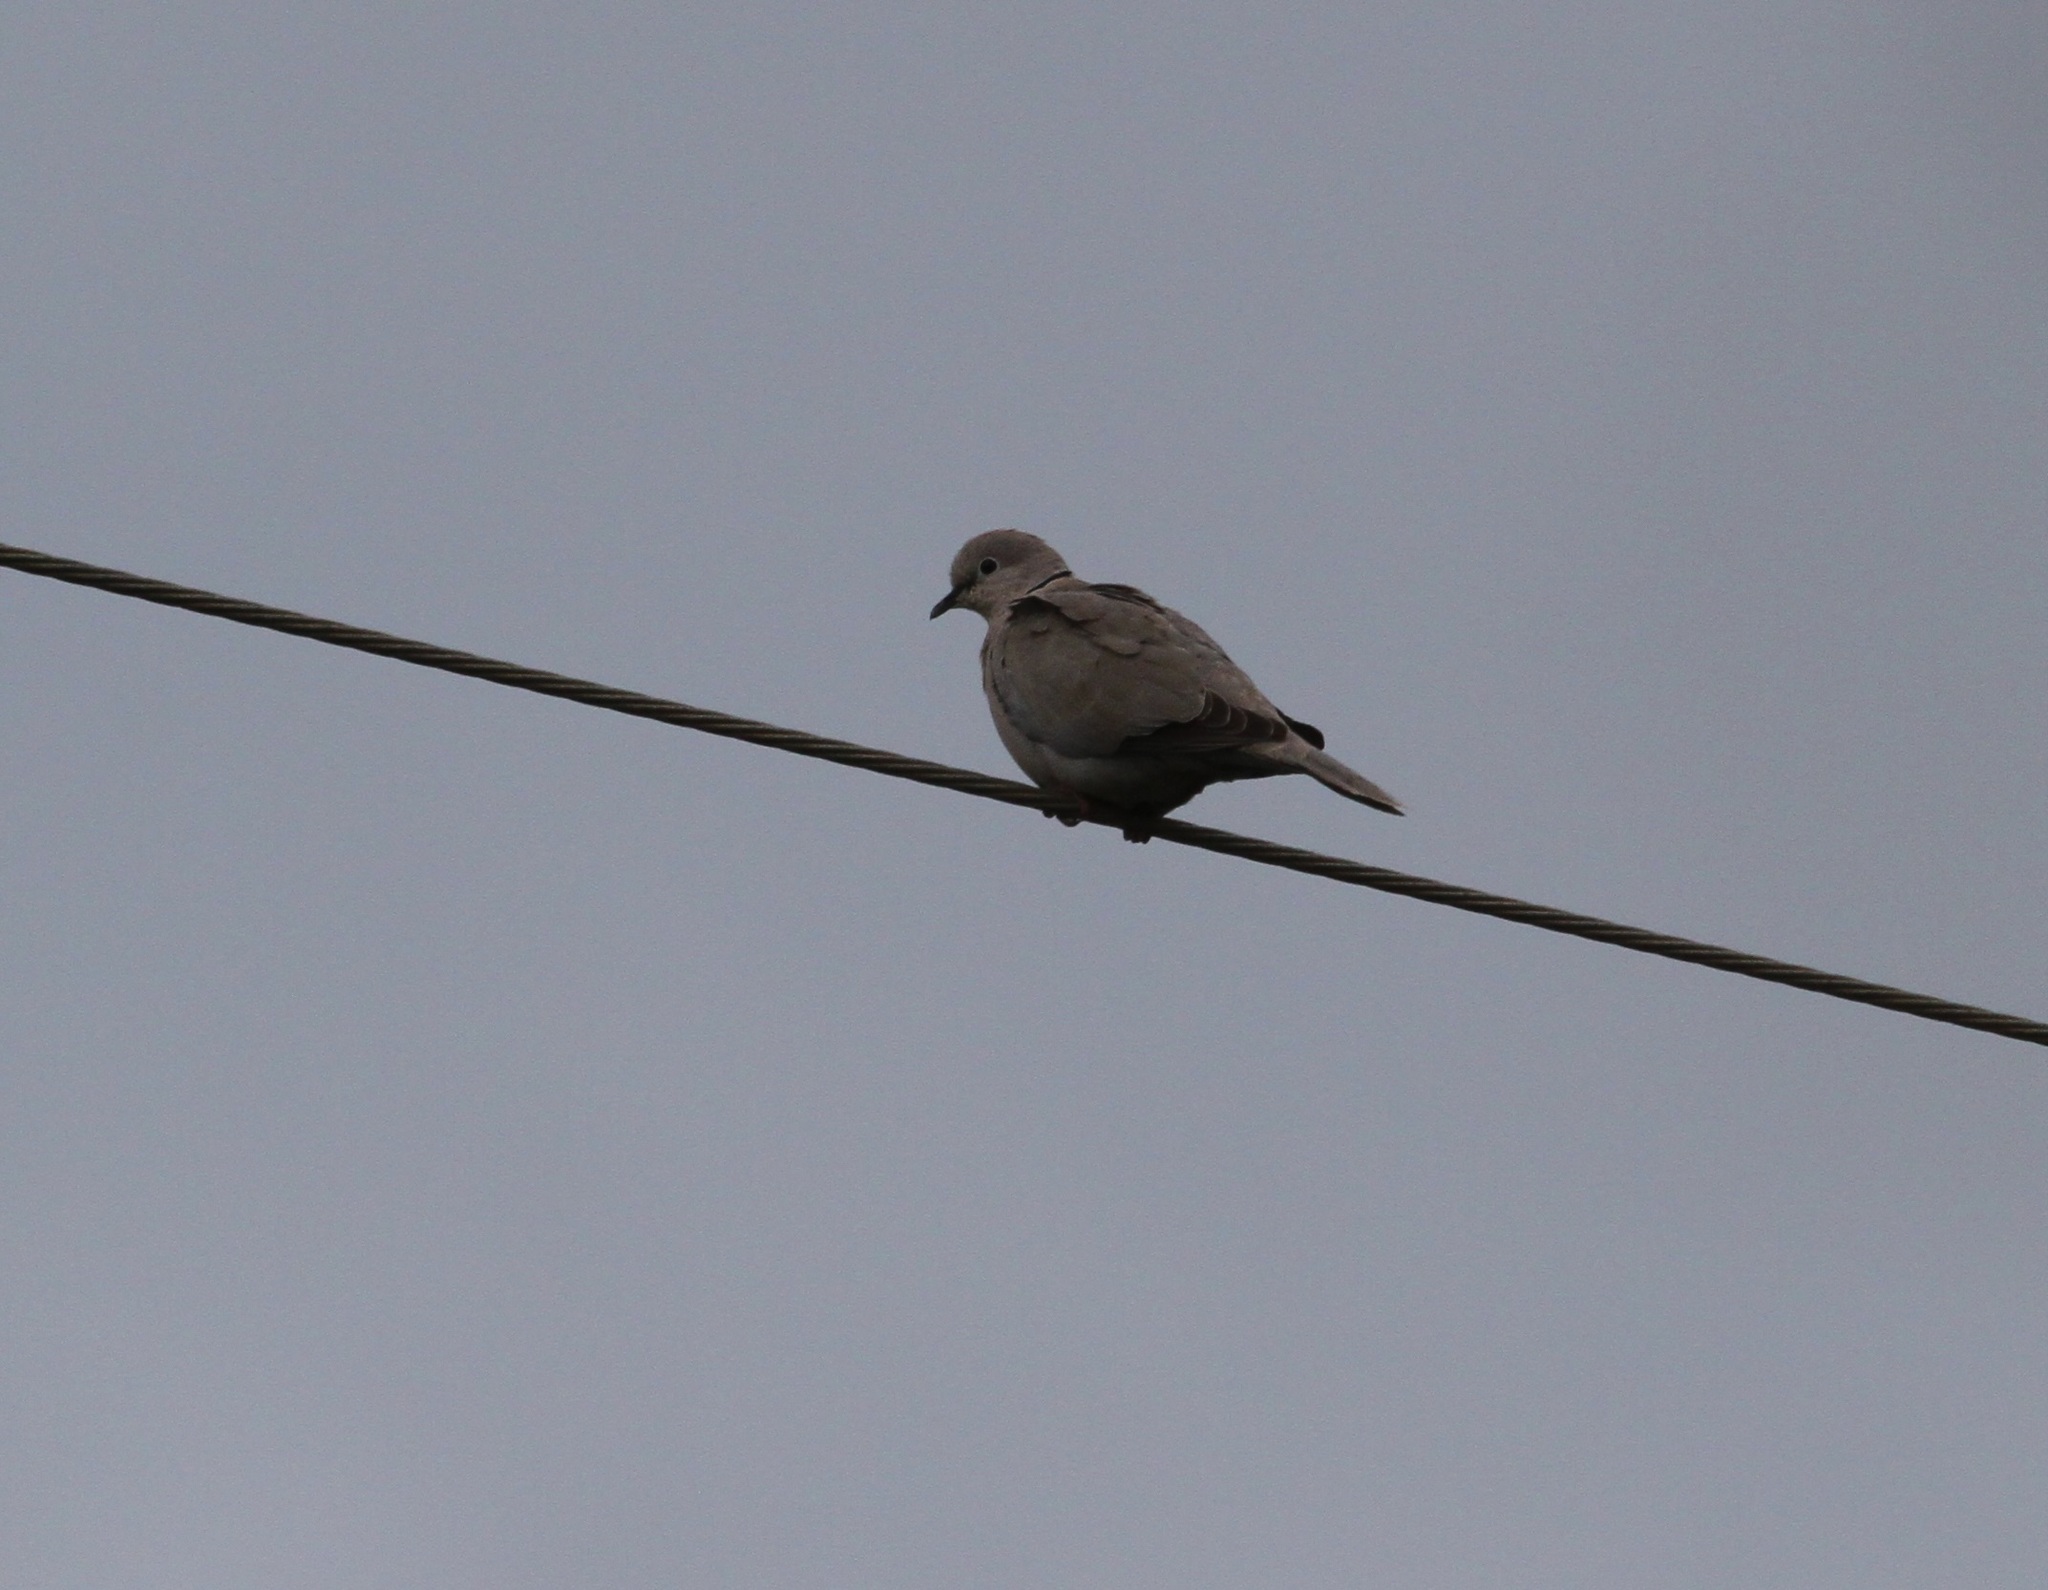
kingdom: Animalia
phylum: Chordata
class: Aves
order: Columbiformes
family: Columbidae
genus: Streptopelia
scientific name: Streptopelia decaocto
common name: Eurasian collared dove
